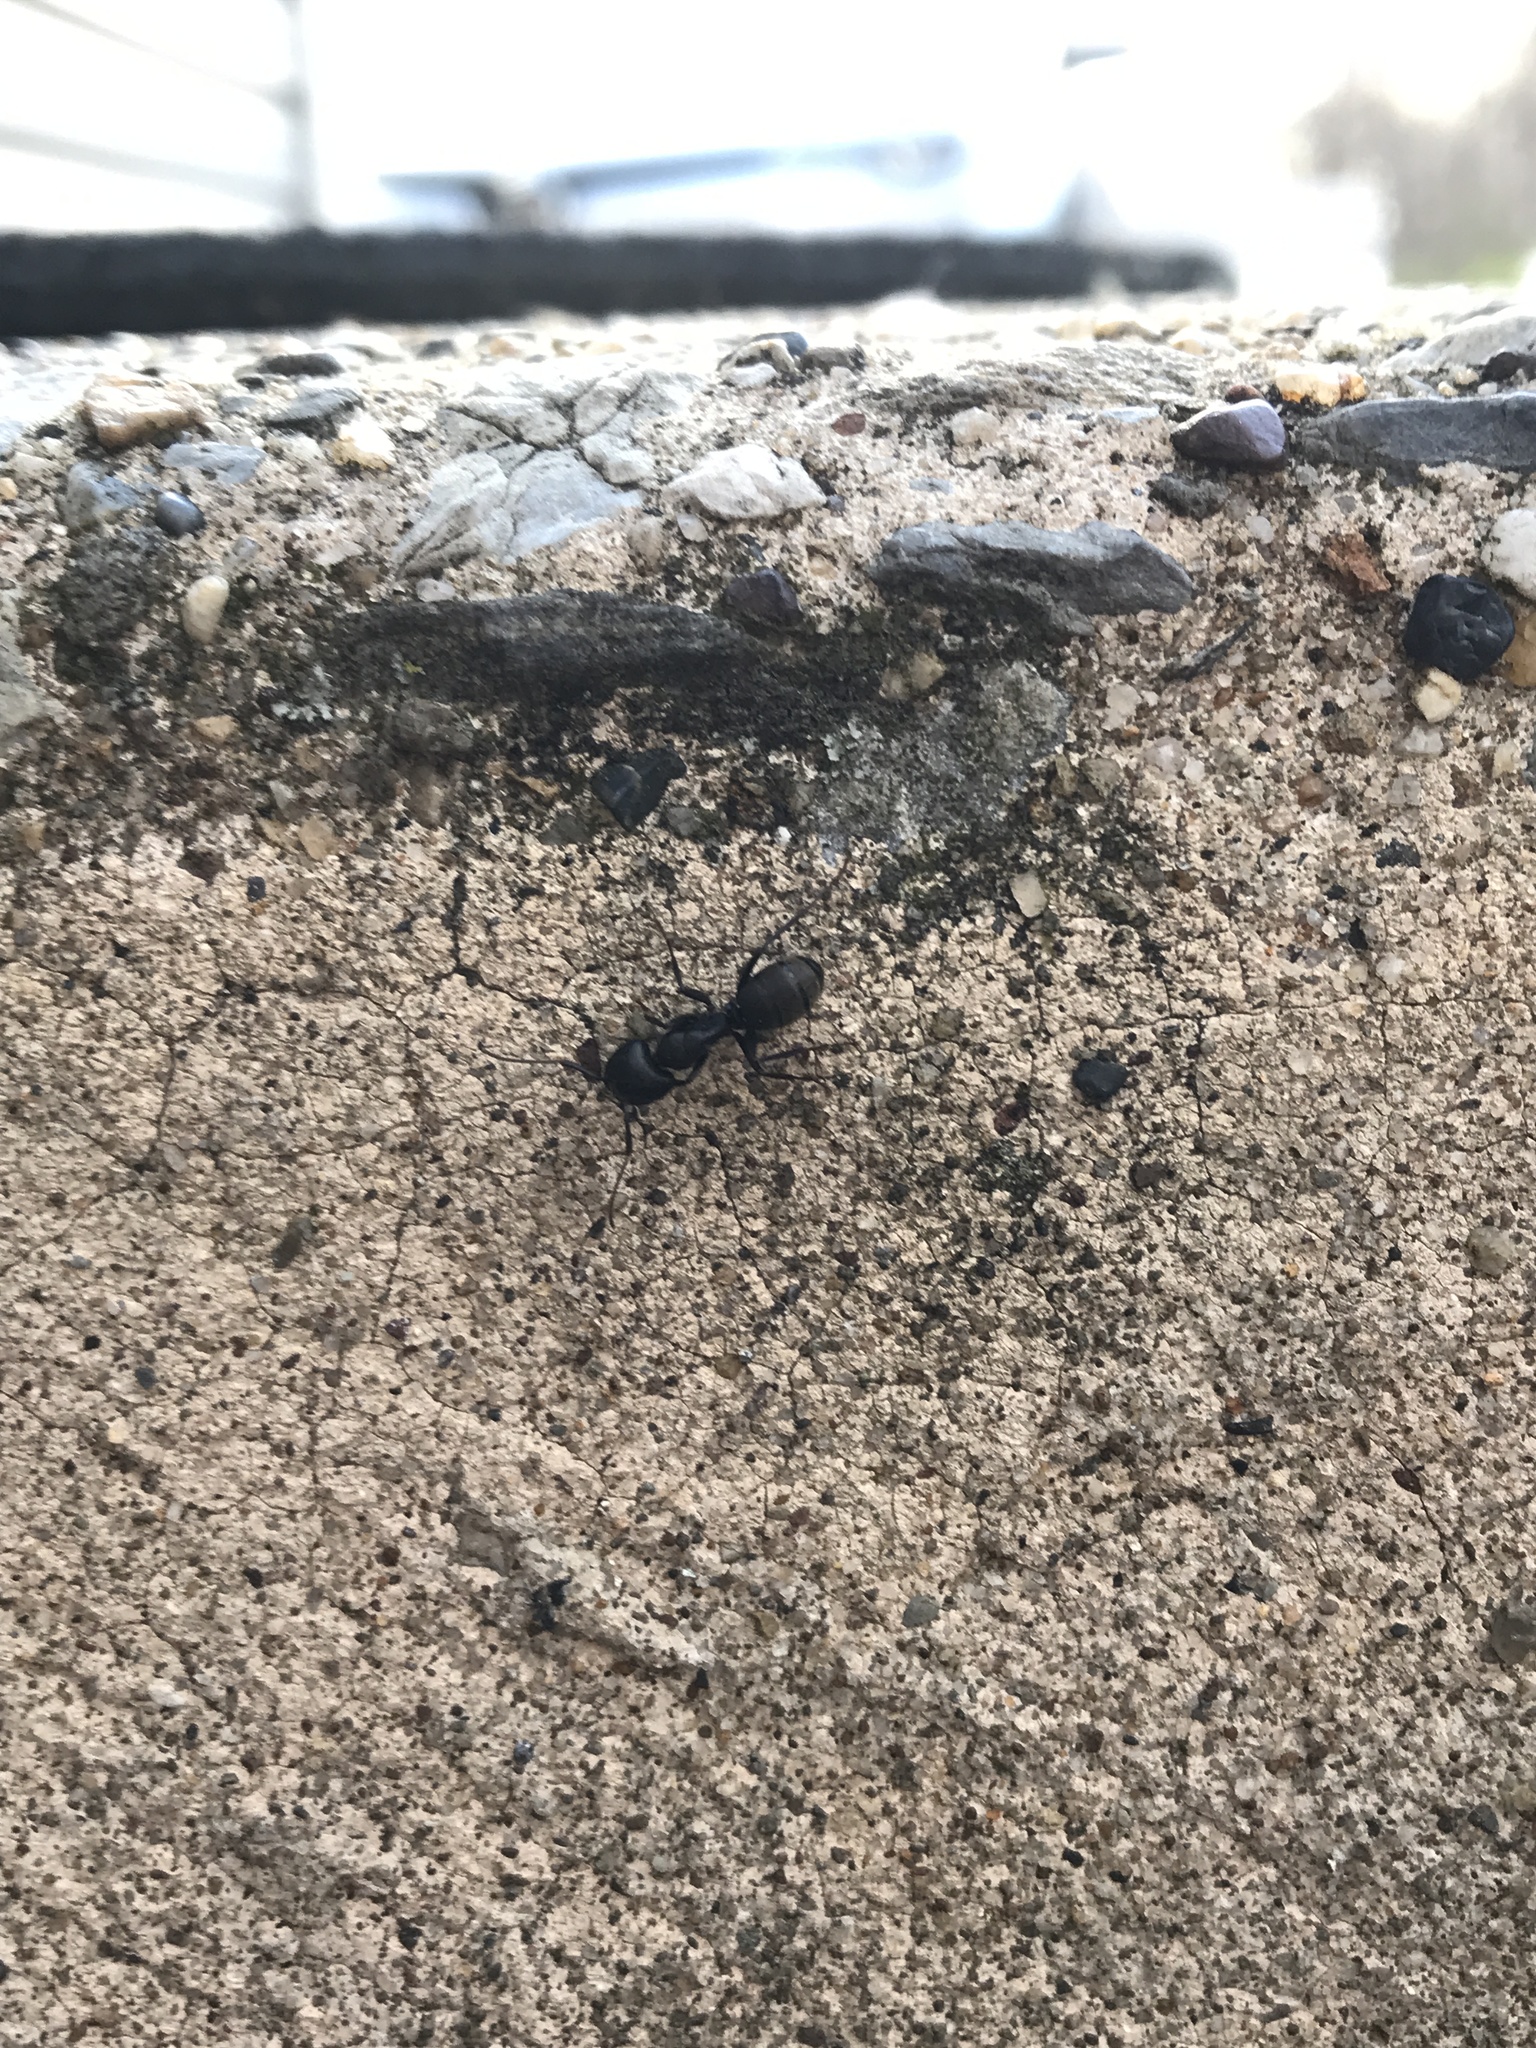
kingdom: Animalia
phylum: Arthropoda
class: Insecta
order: Hymenoptera
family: Formicidae
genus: Camponotus
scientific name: Camponotus pennsylvanicus
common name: Black carpenter ant
